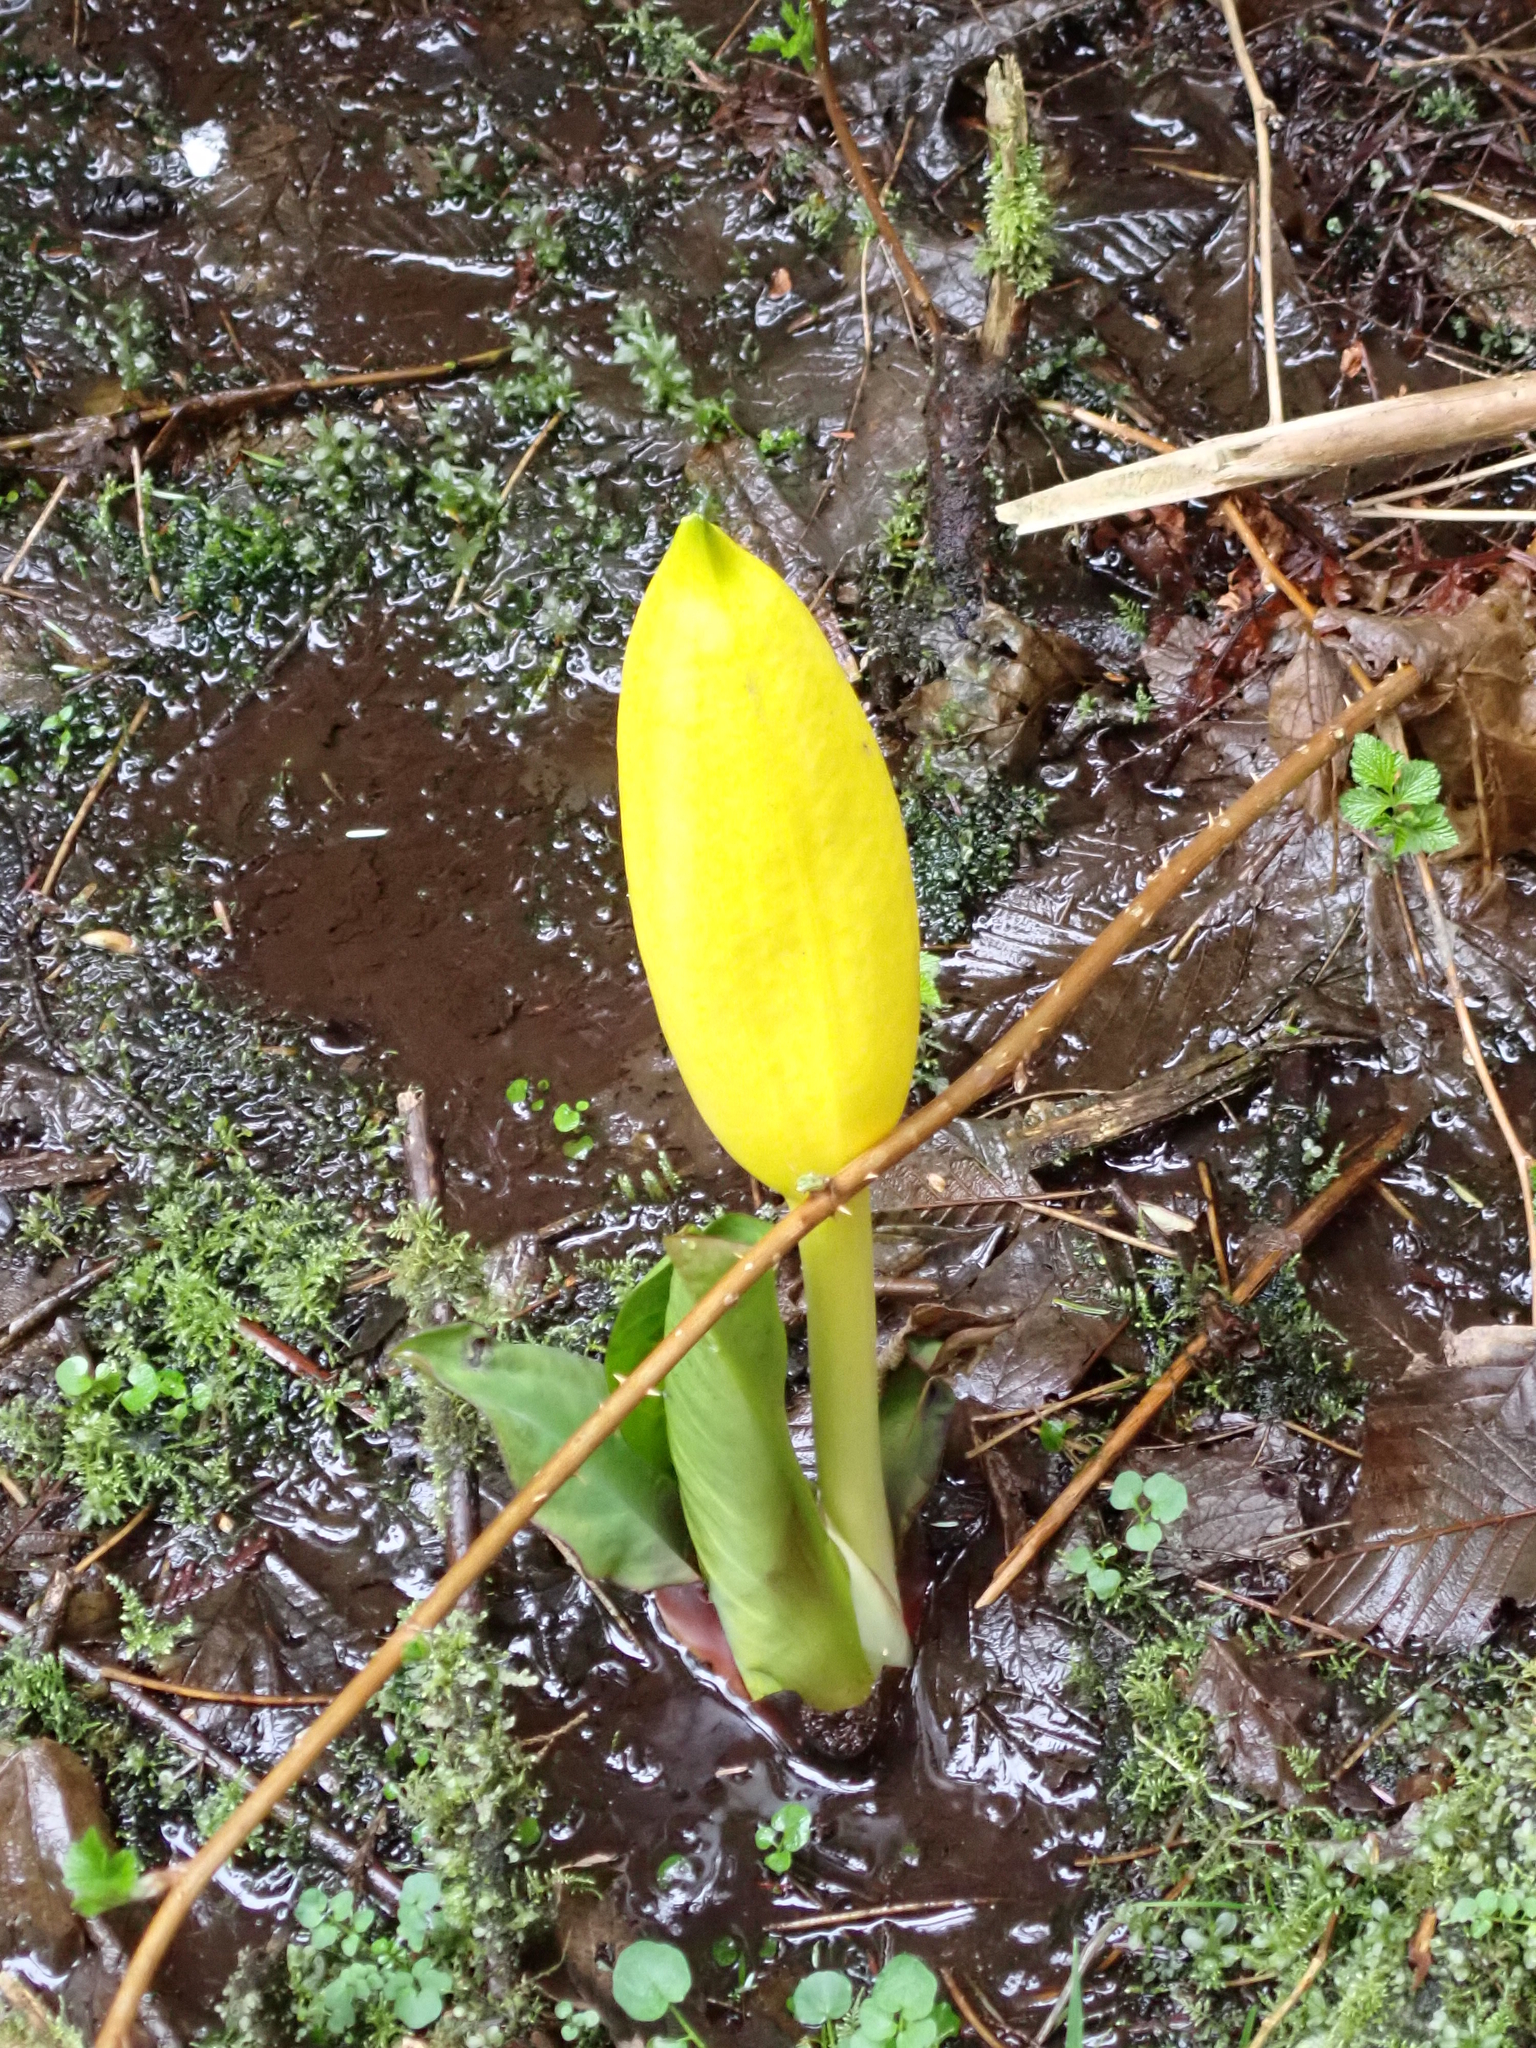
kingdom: Plantae
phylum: Tracheophyta
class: Liliopsida
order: Alismatales
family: Araceae
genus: Lysichiton
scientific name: Lysichiton americanus
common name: American skunk cabbage
